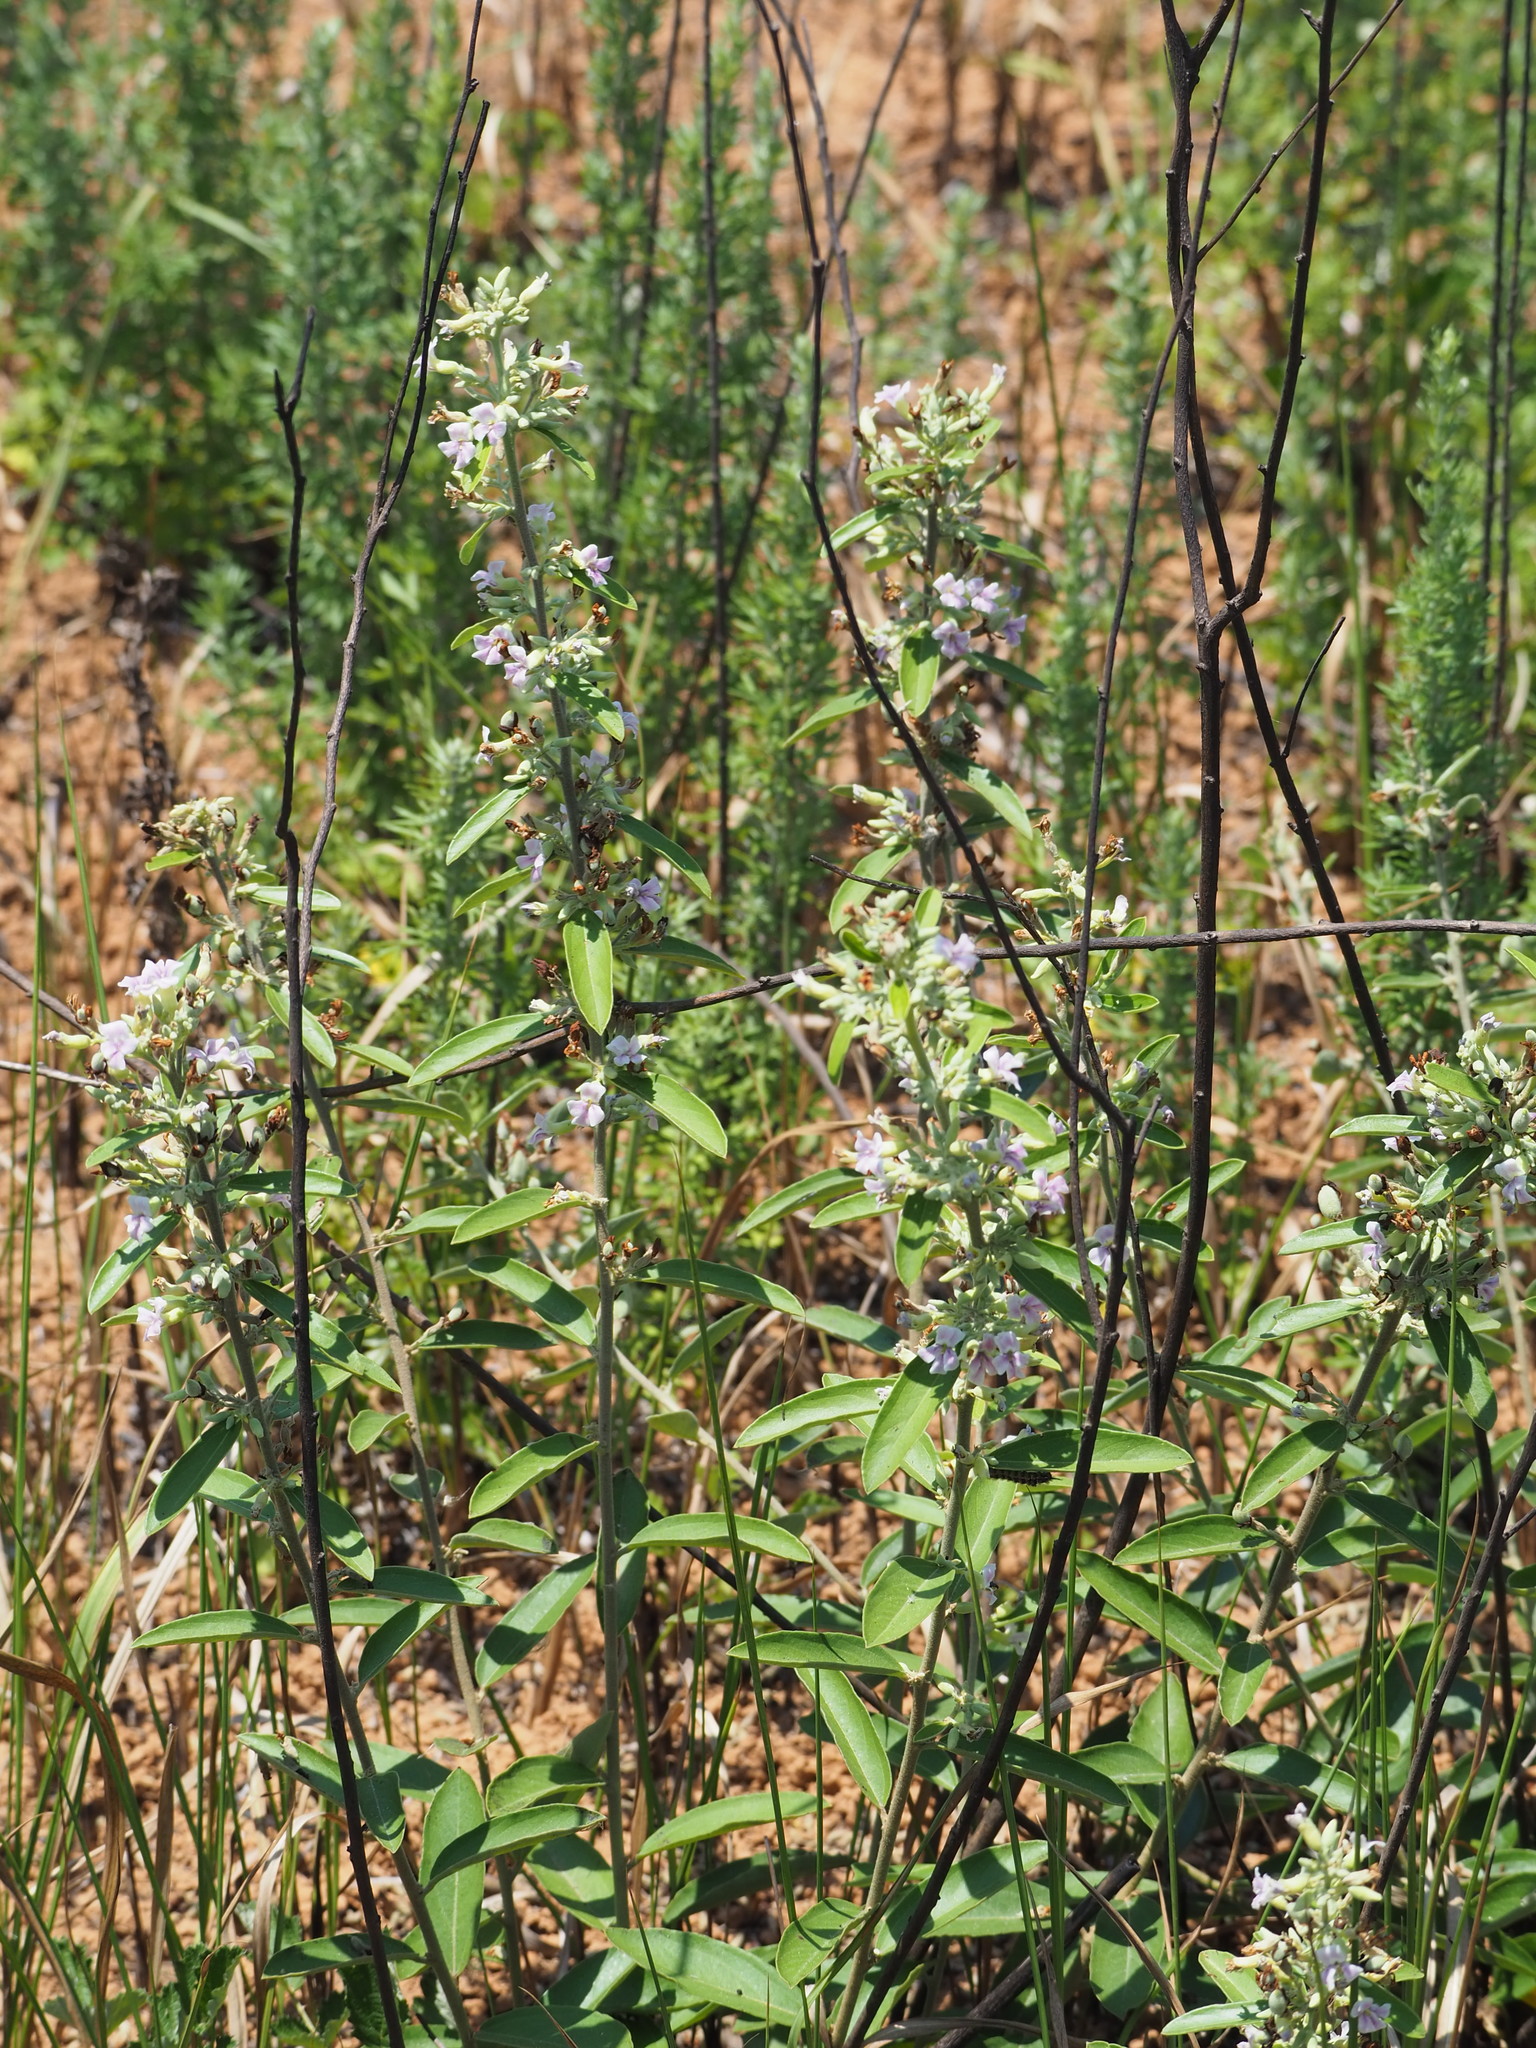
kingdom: Plantae
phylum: Tracheophyta
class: Magnoliopsida
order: Malvales
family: Malvaceae
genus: Helicteres
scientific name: Helicteres angustifolia
